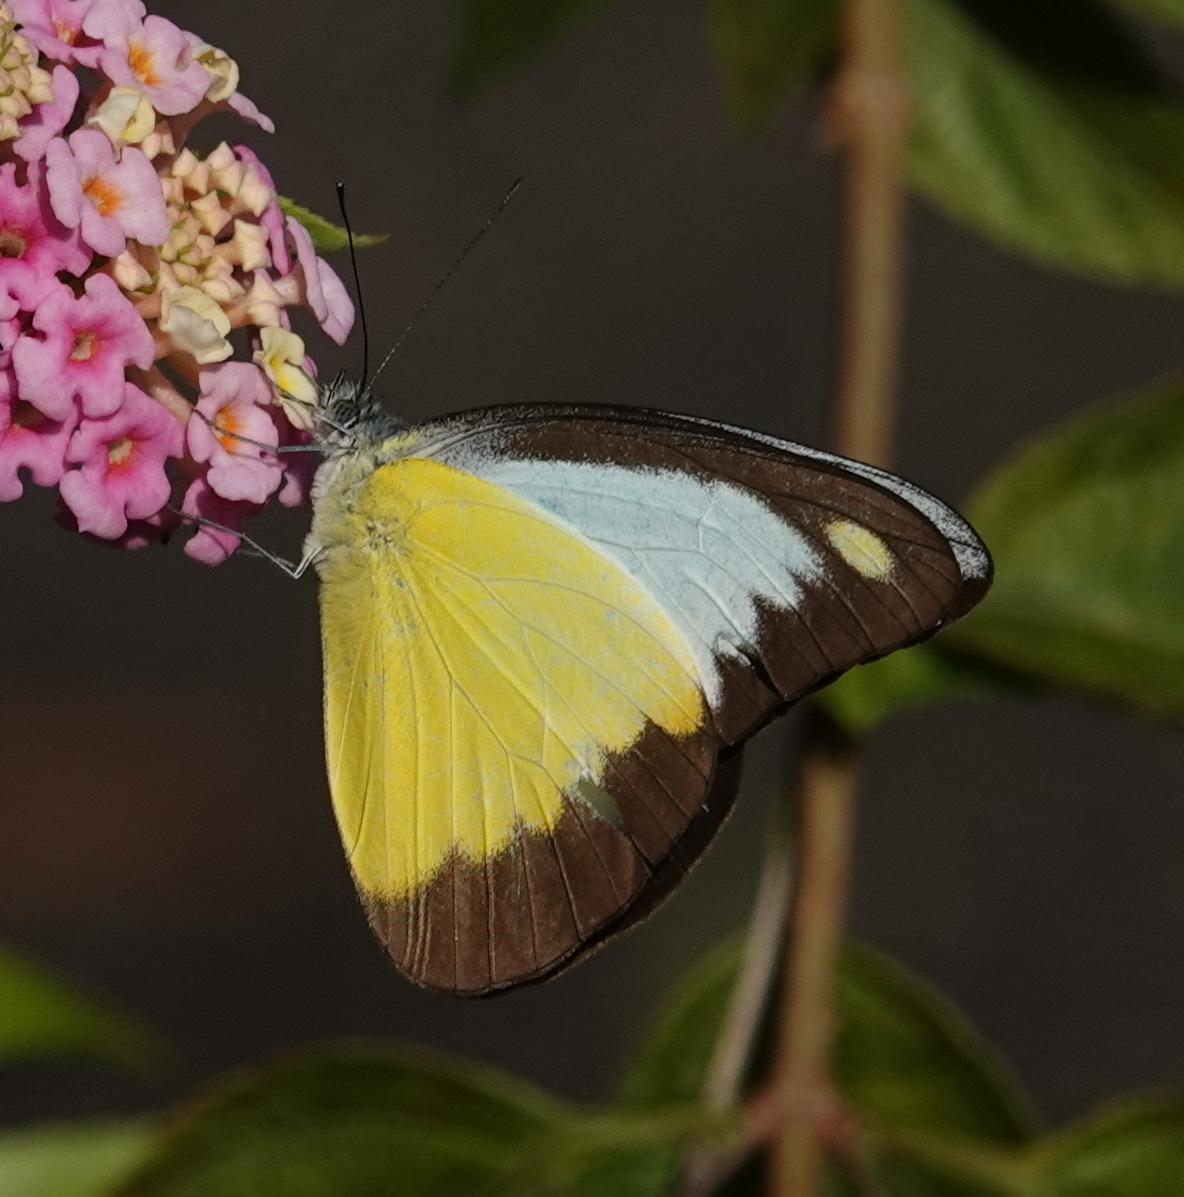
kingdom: Animalia
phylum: Arthropoda
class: Insecta
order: Lepidoptera
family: Pieridae
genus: Appias
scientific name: Appias lyncida
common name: Chocolate albatross
